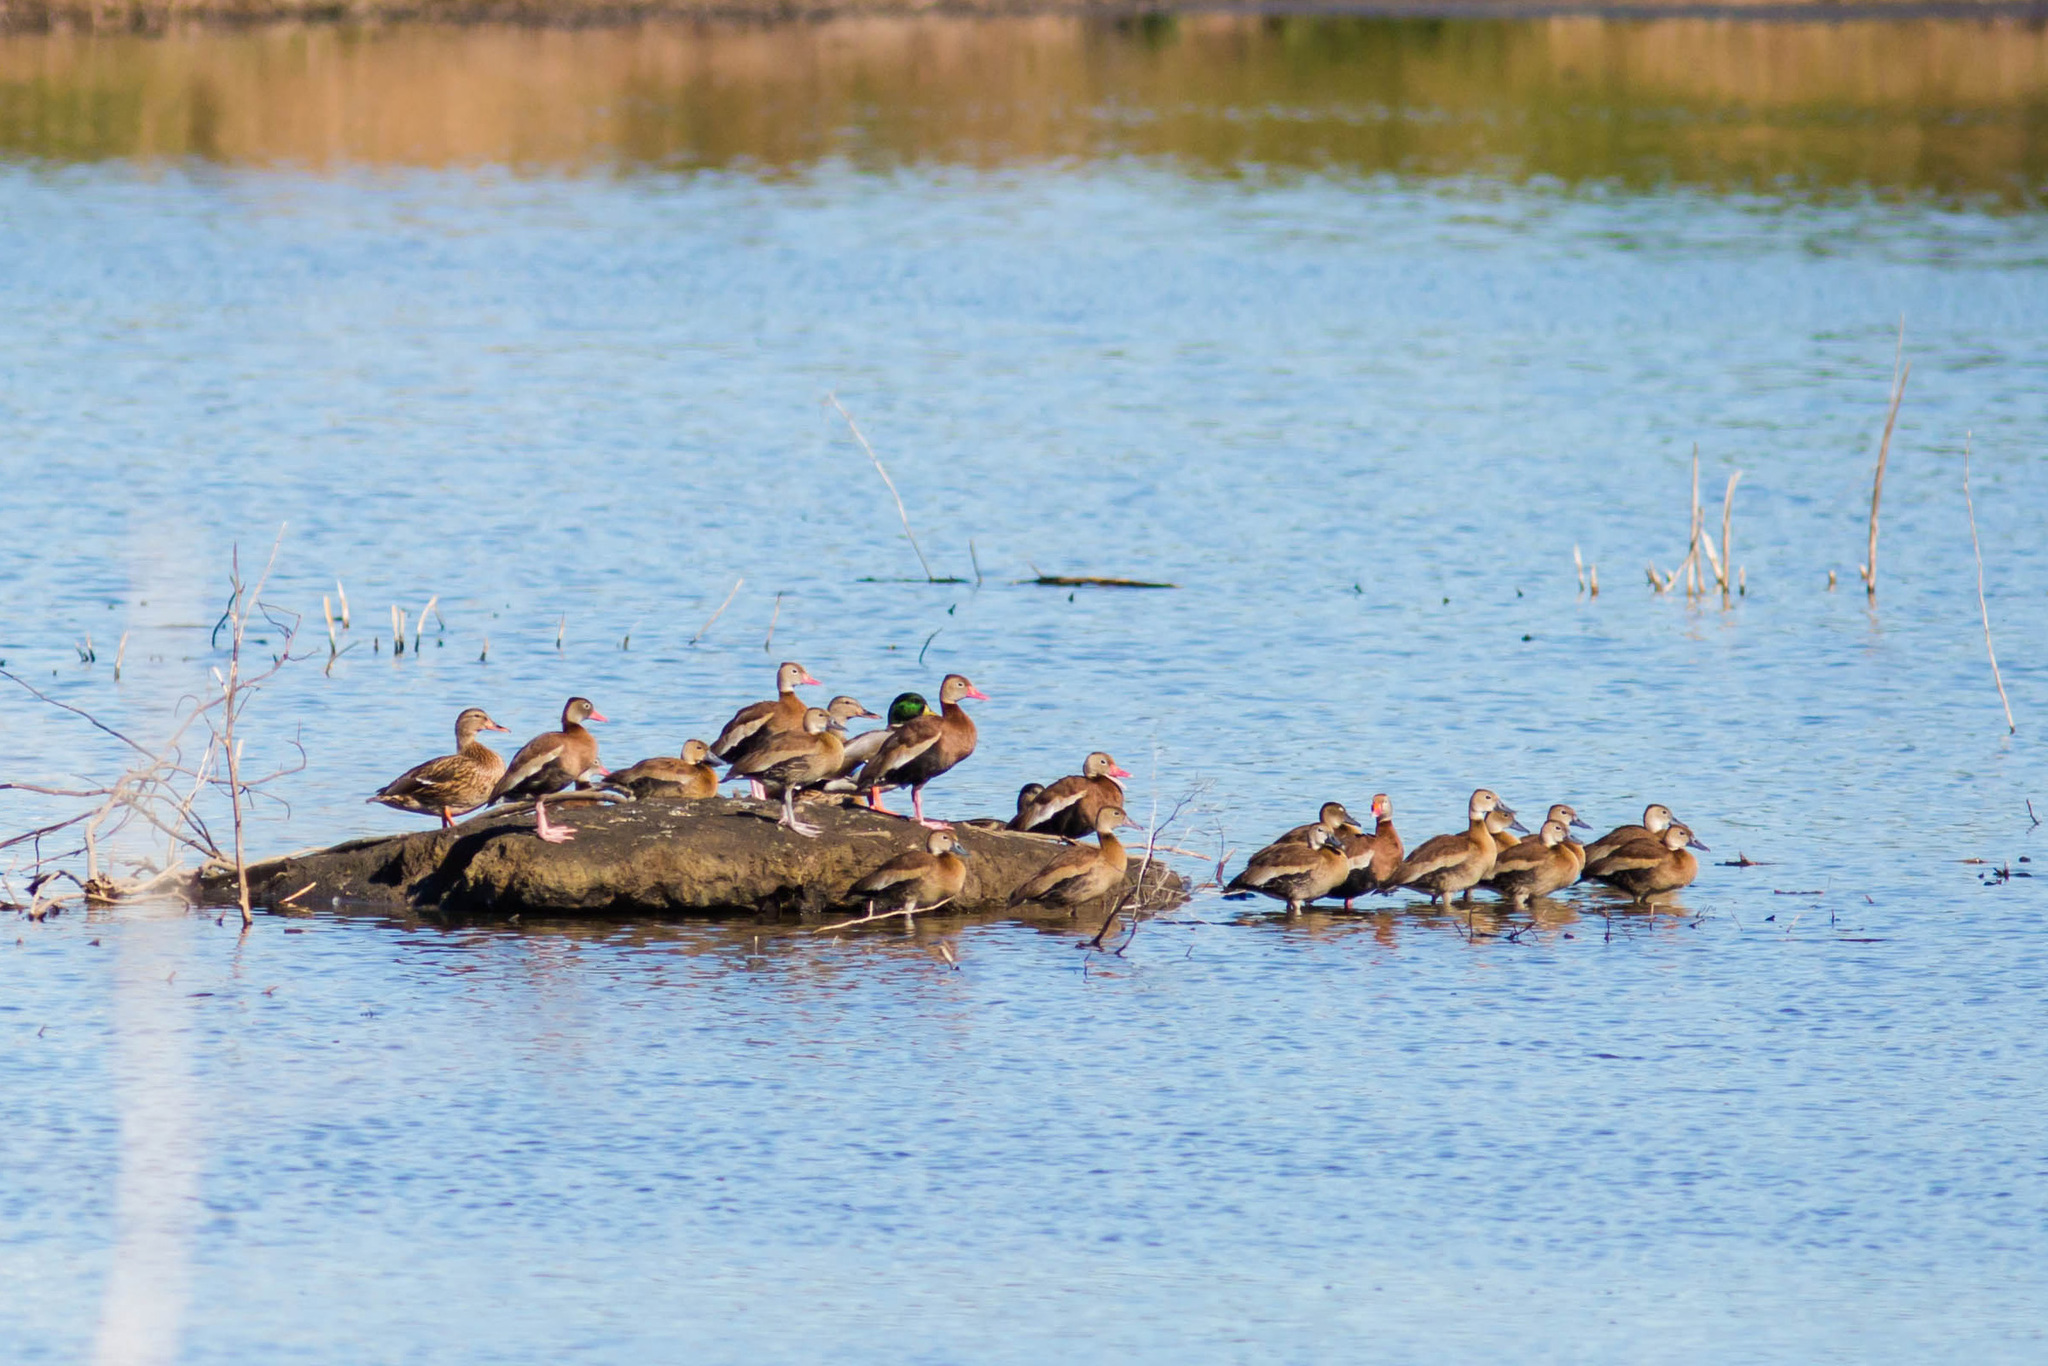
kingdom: Animalia
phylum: Chordata
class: Aves
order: Anseriformes
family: Anatidae
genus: Dendrocygna
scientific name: Dendrocygna autumnalis
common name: Black-bellied whistling duck
